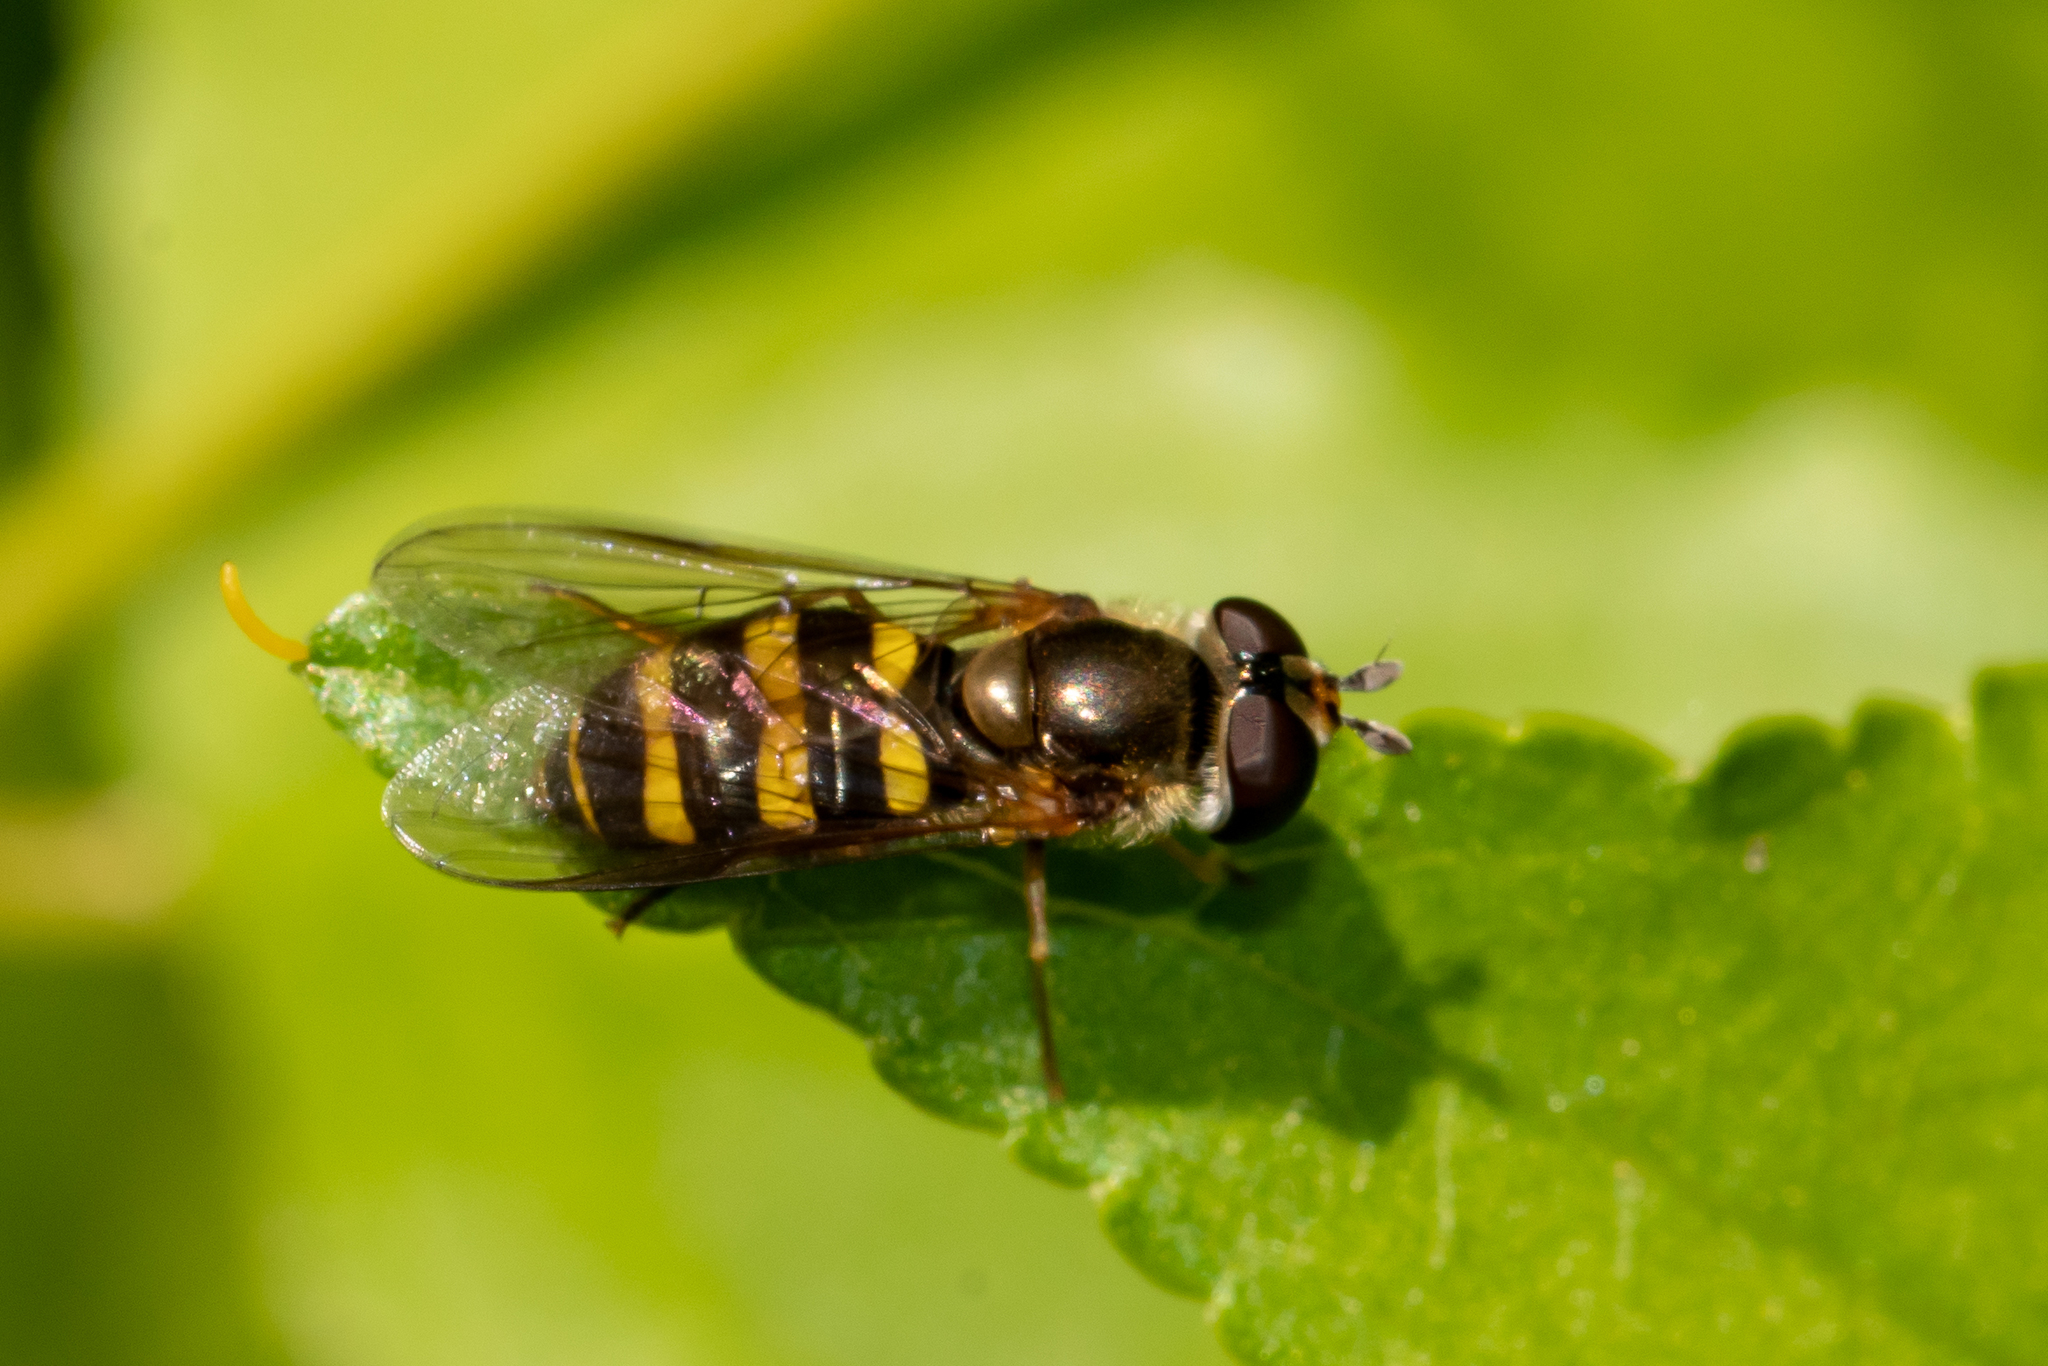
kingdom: Animalia
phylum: Arthropoda
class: Insecta
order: Diptera
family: Syrphidae
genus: Eupeodes
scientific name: Eupeodes
